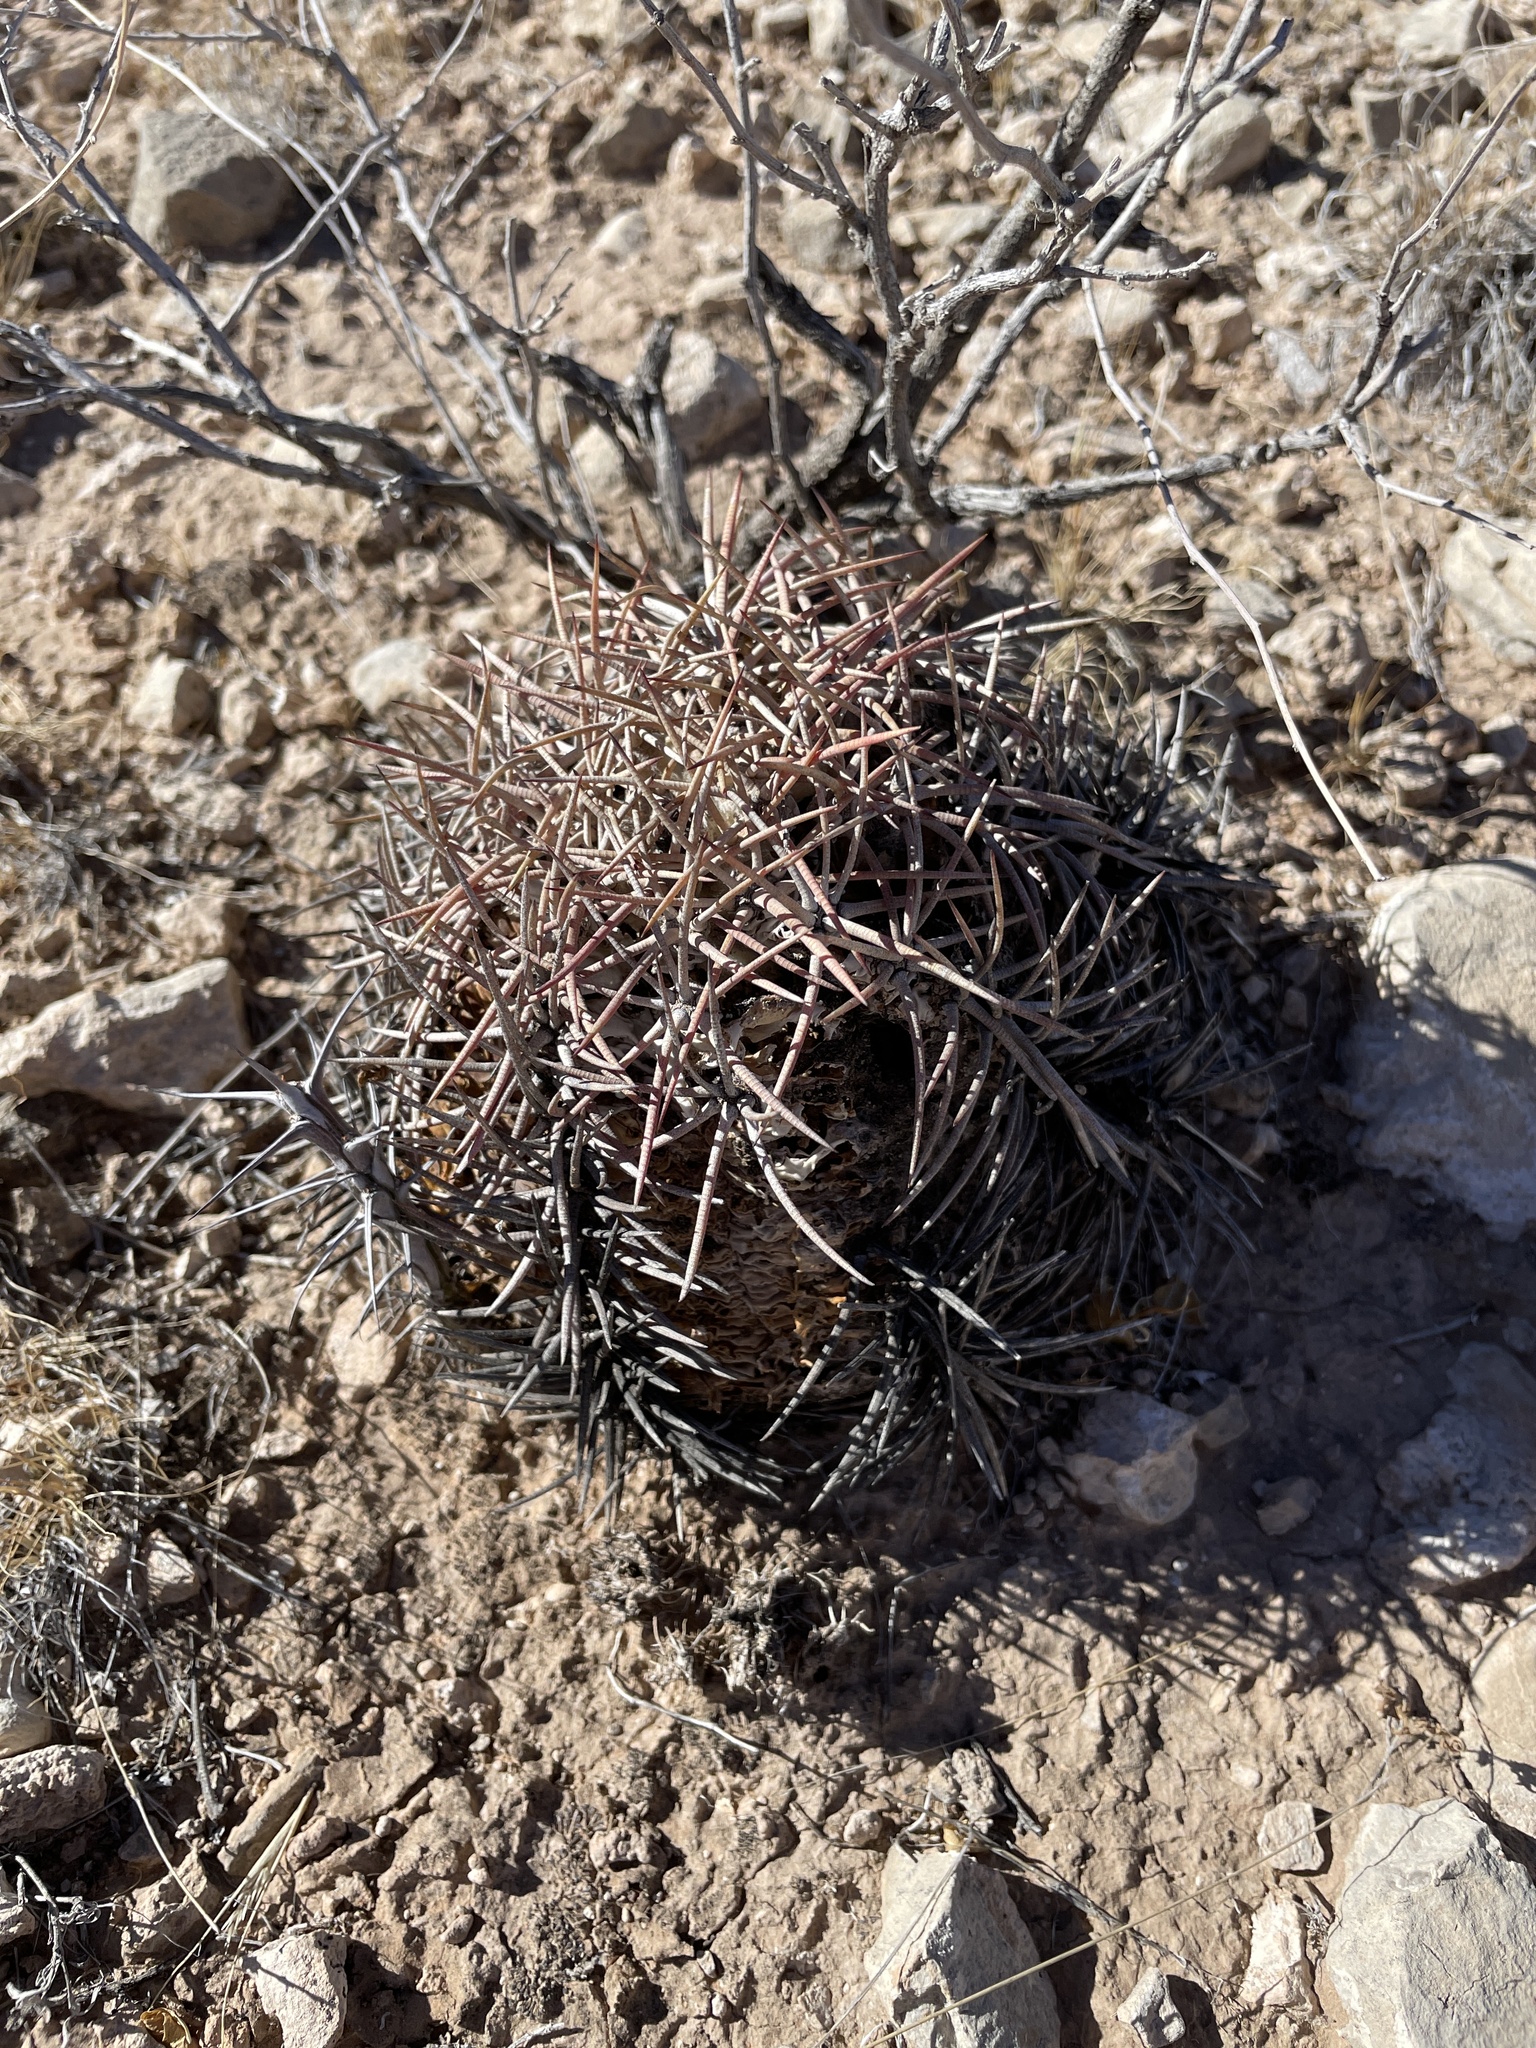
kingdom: Plantae
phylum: Tracheophyta
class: Magnoliopsida
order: Caryophyllales
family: Cactaceae
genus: Echinocactus
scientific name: Echinocactus horizonthalonius
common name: Devilshead
